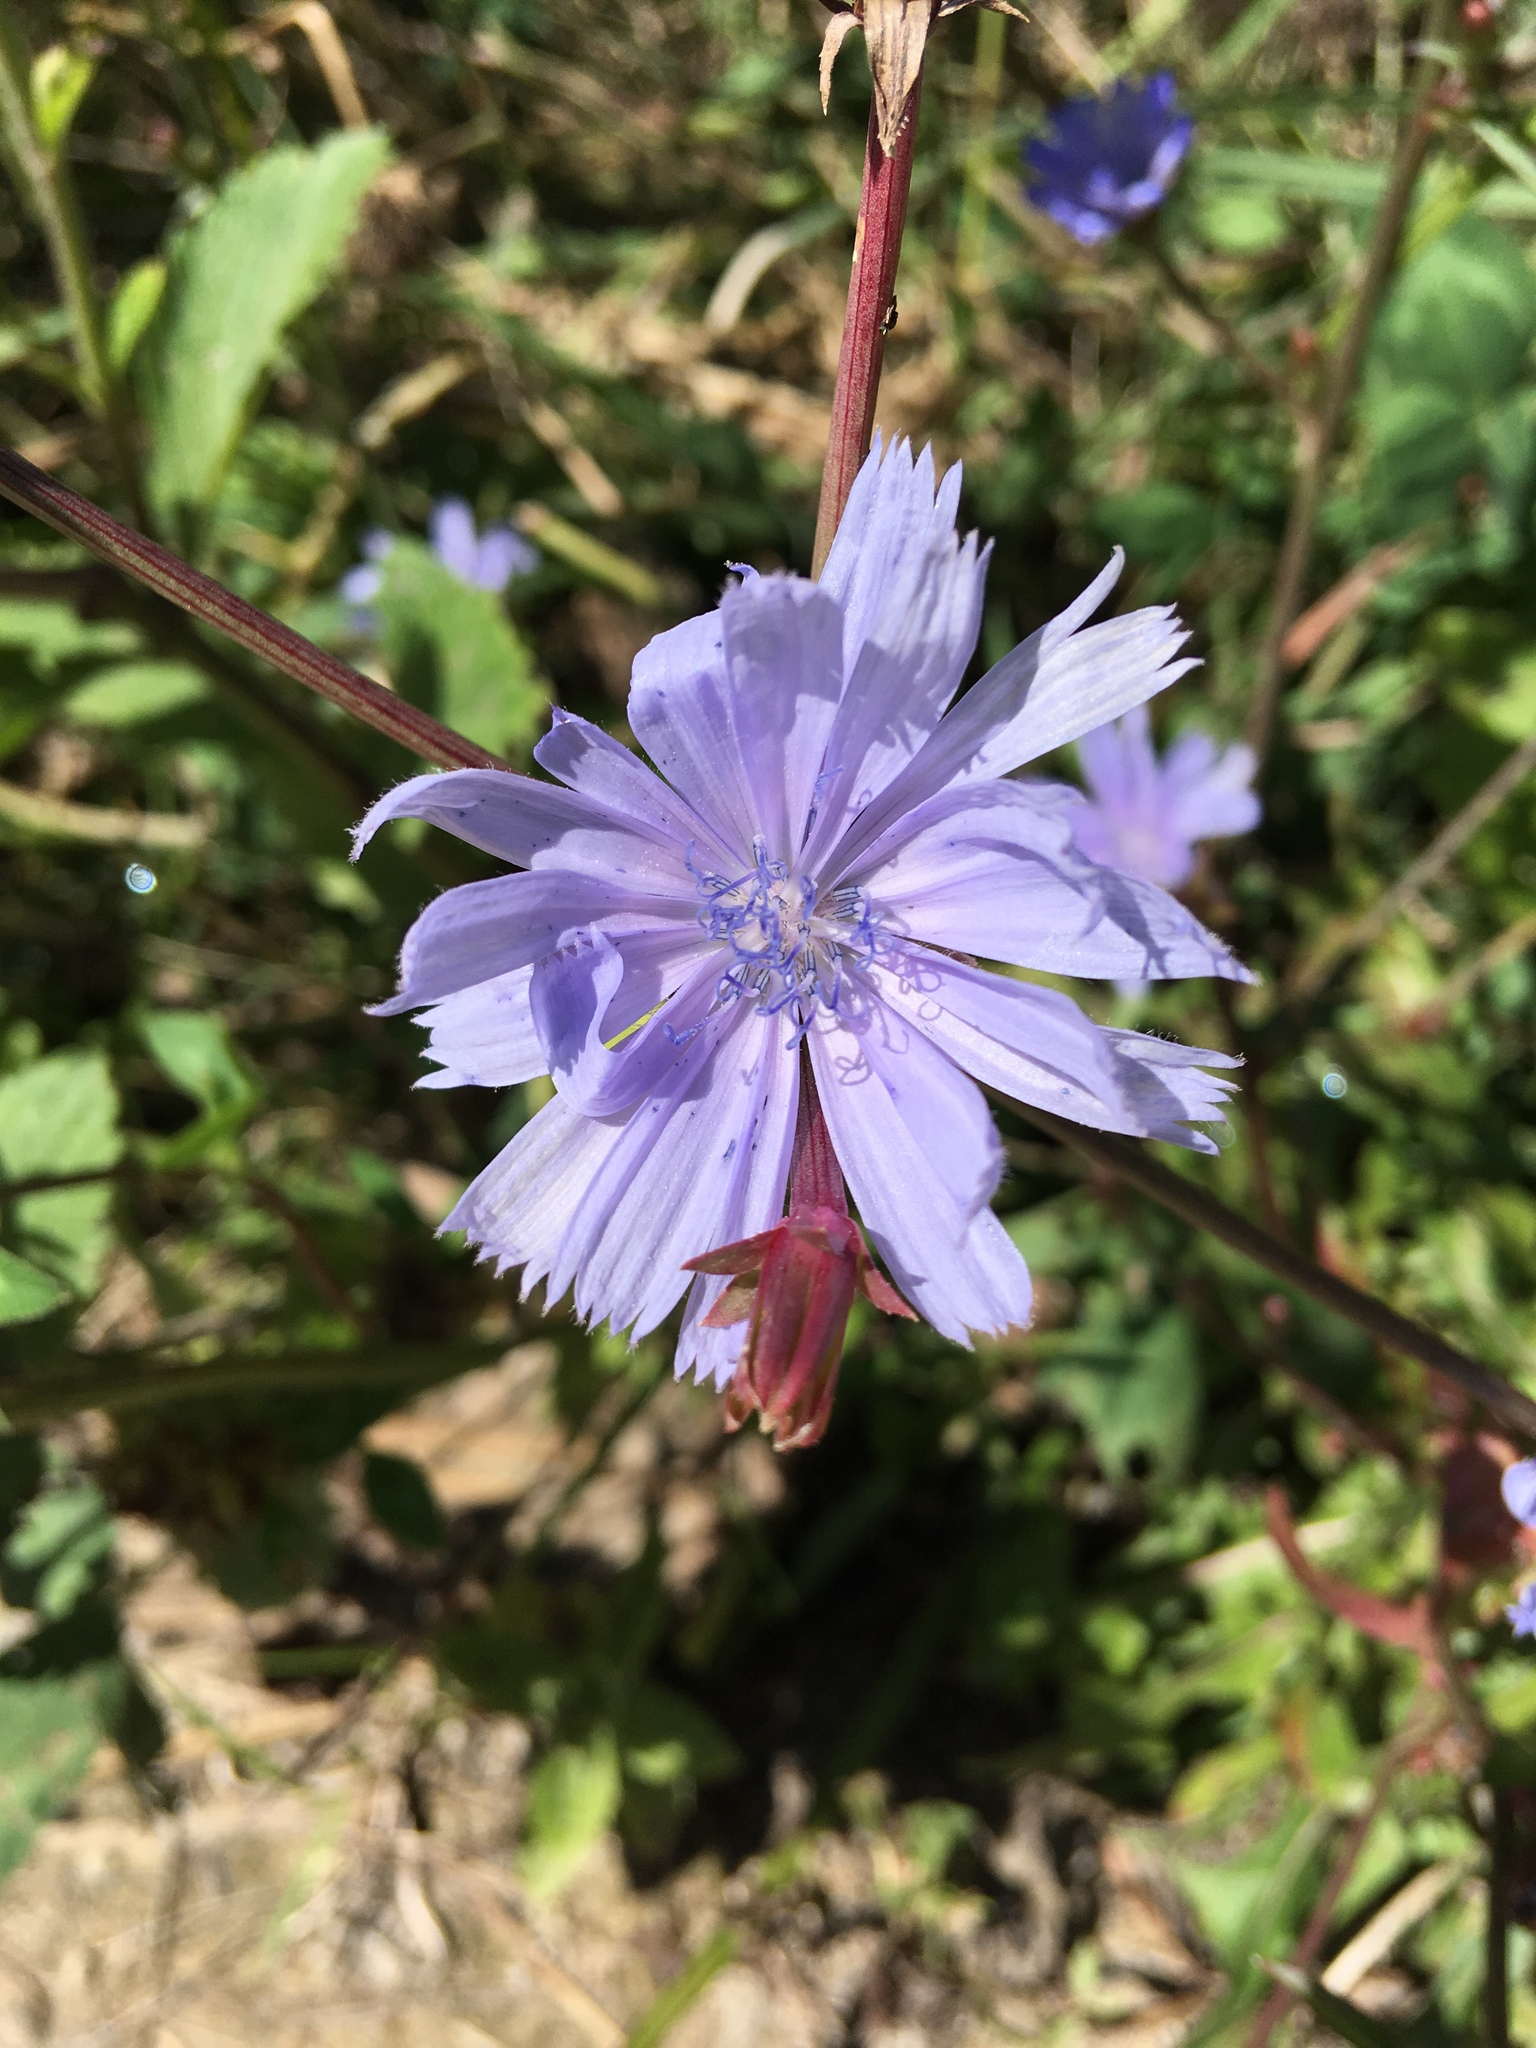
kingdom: Plantae
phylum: Tracheophyta
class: Magnoliopsida
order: Asterales
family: Asteraceae
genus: Cichorium
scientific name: Cichorium intybus
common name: Chicory
